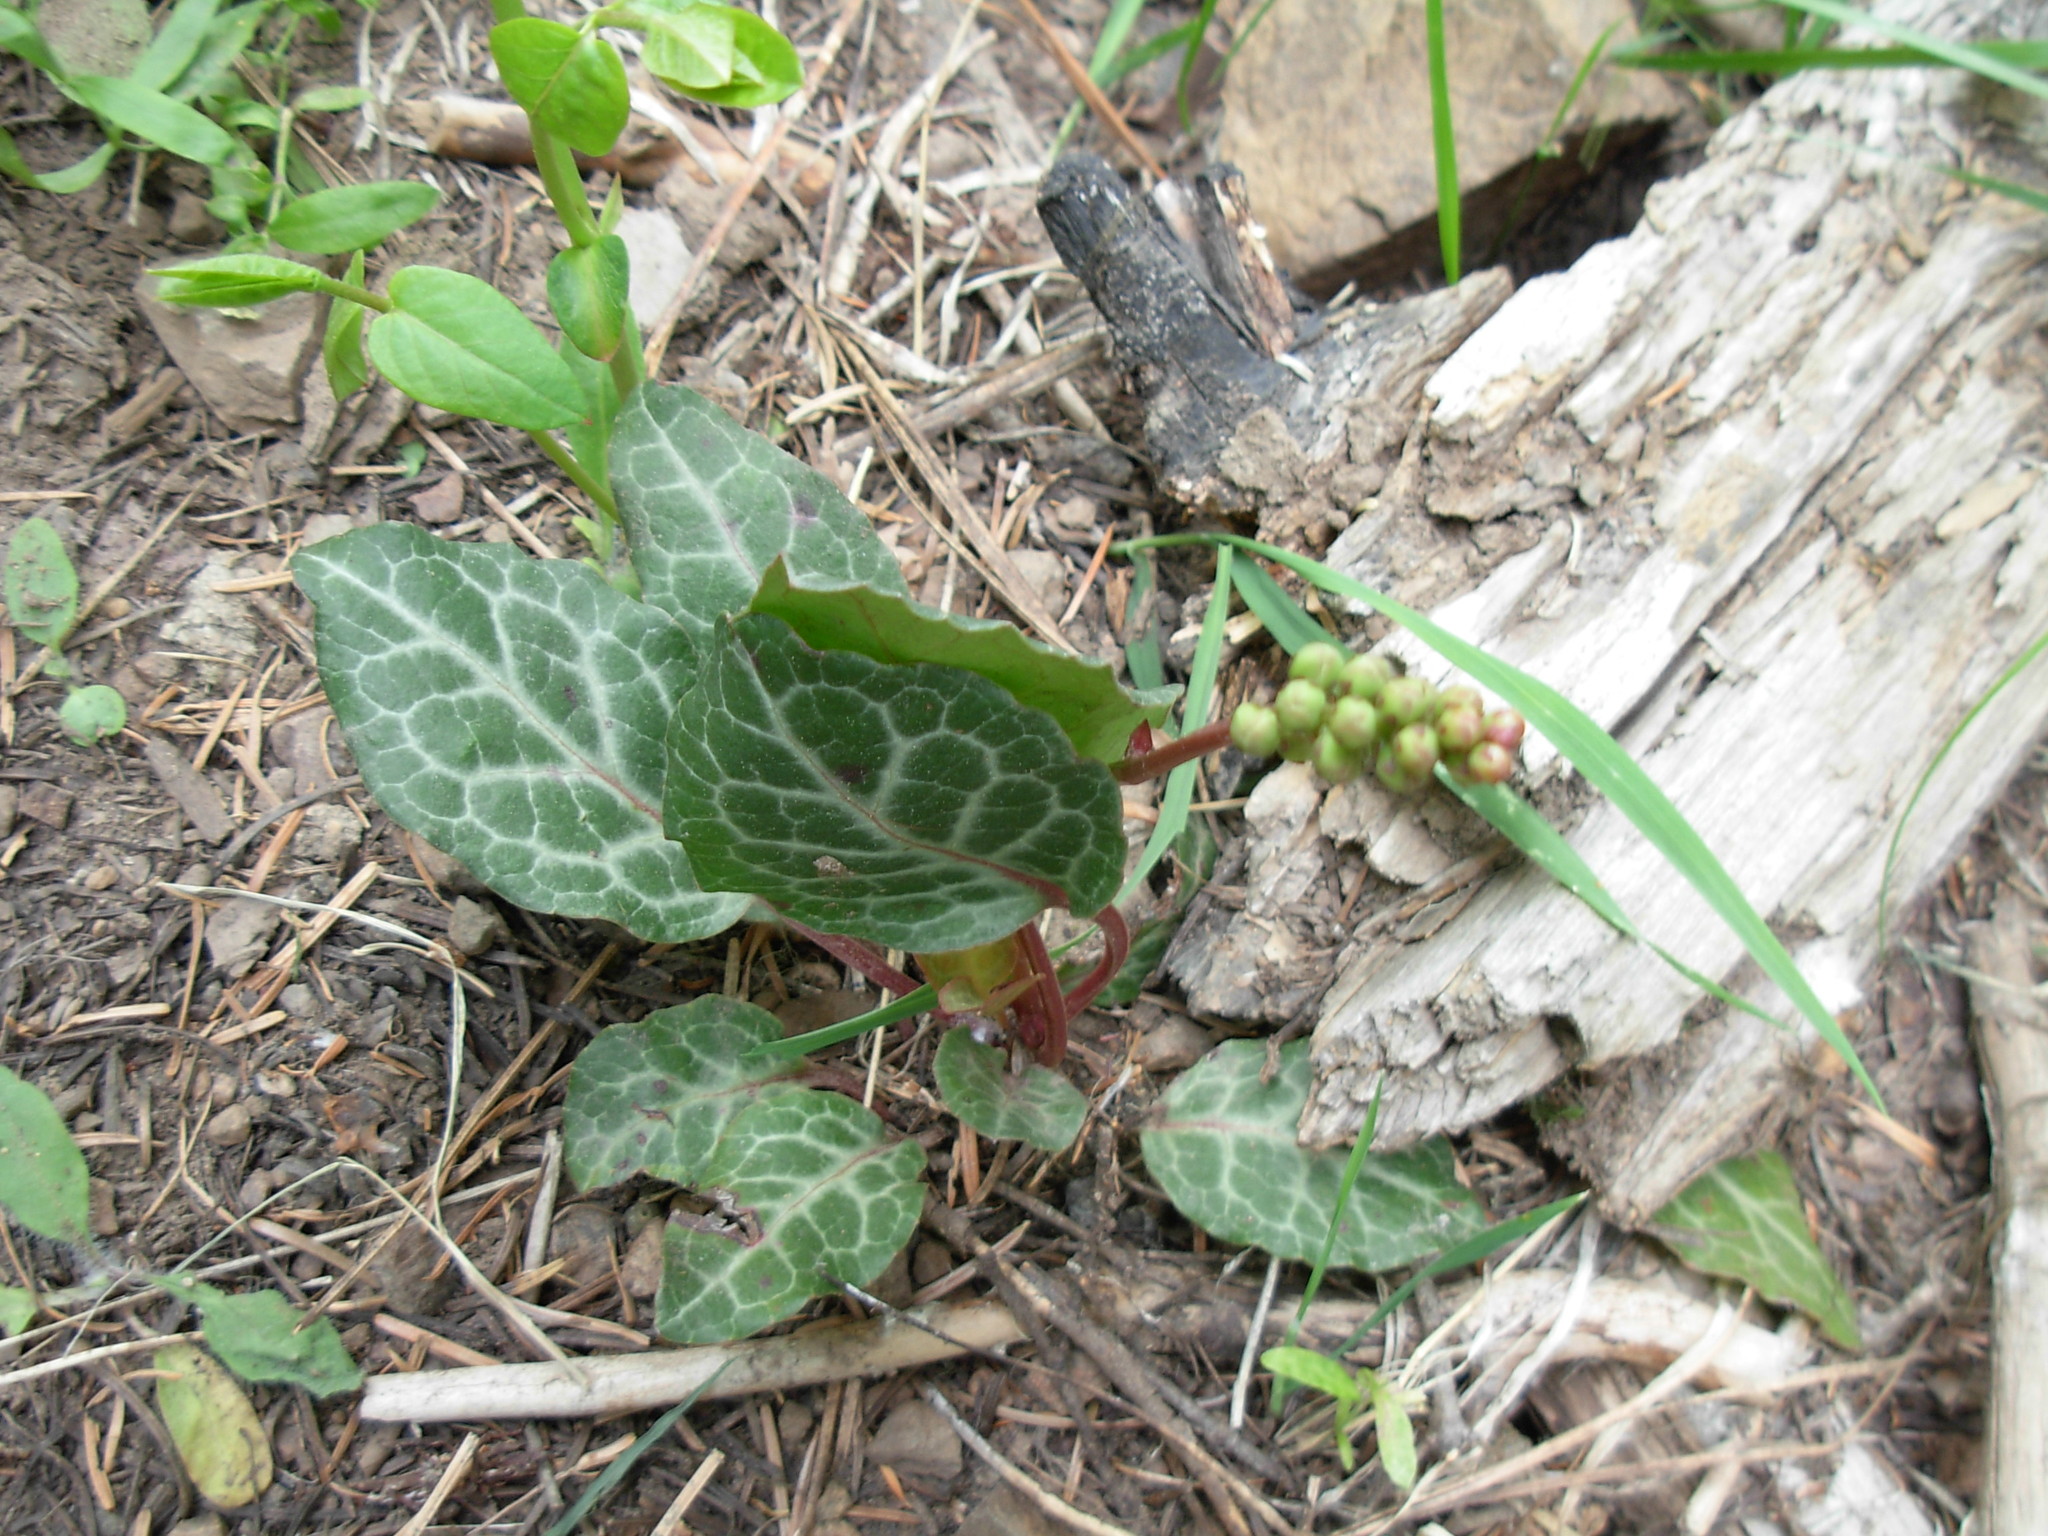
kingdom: Plantae
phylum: Tracheophyta
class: Magnoliopsida
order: Ericales
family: Ericaceae
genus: Pyrola
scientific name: Pyrola picta
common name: White-vein wintergreen
